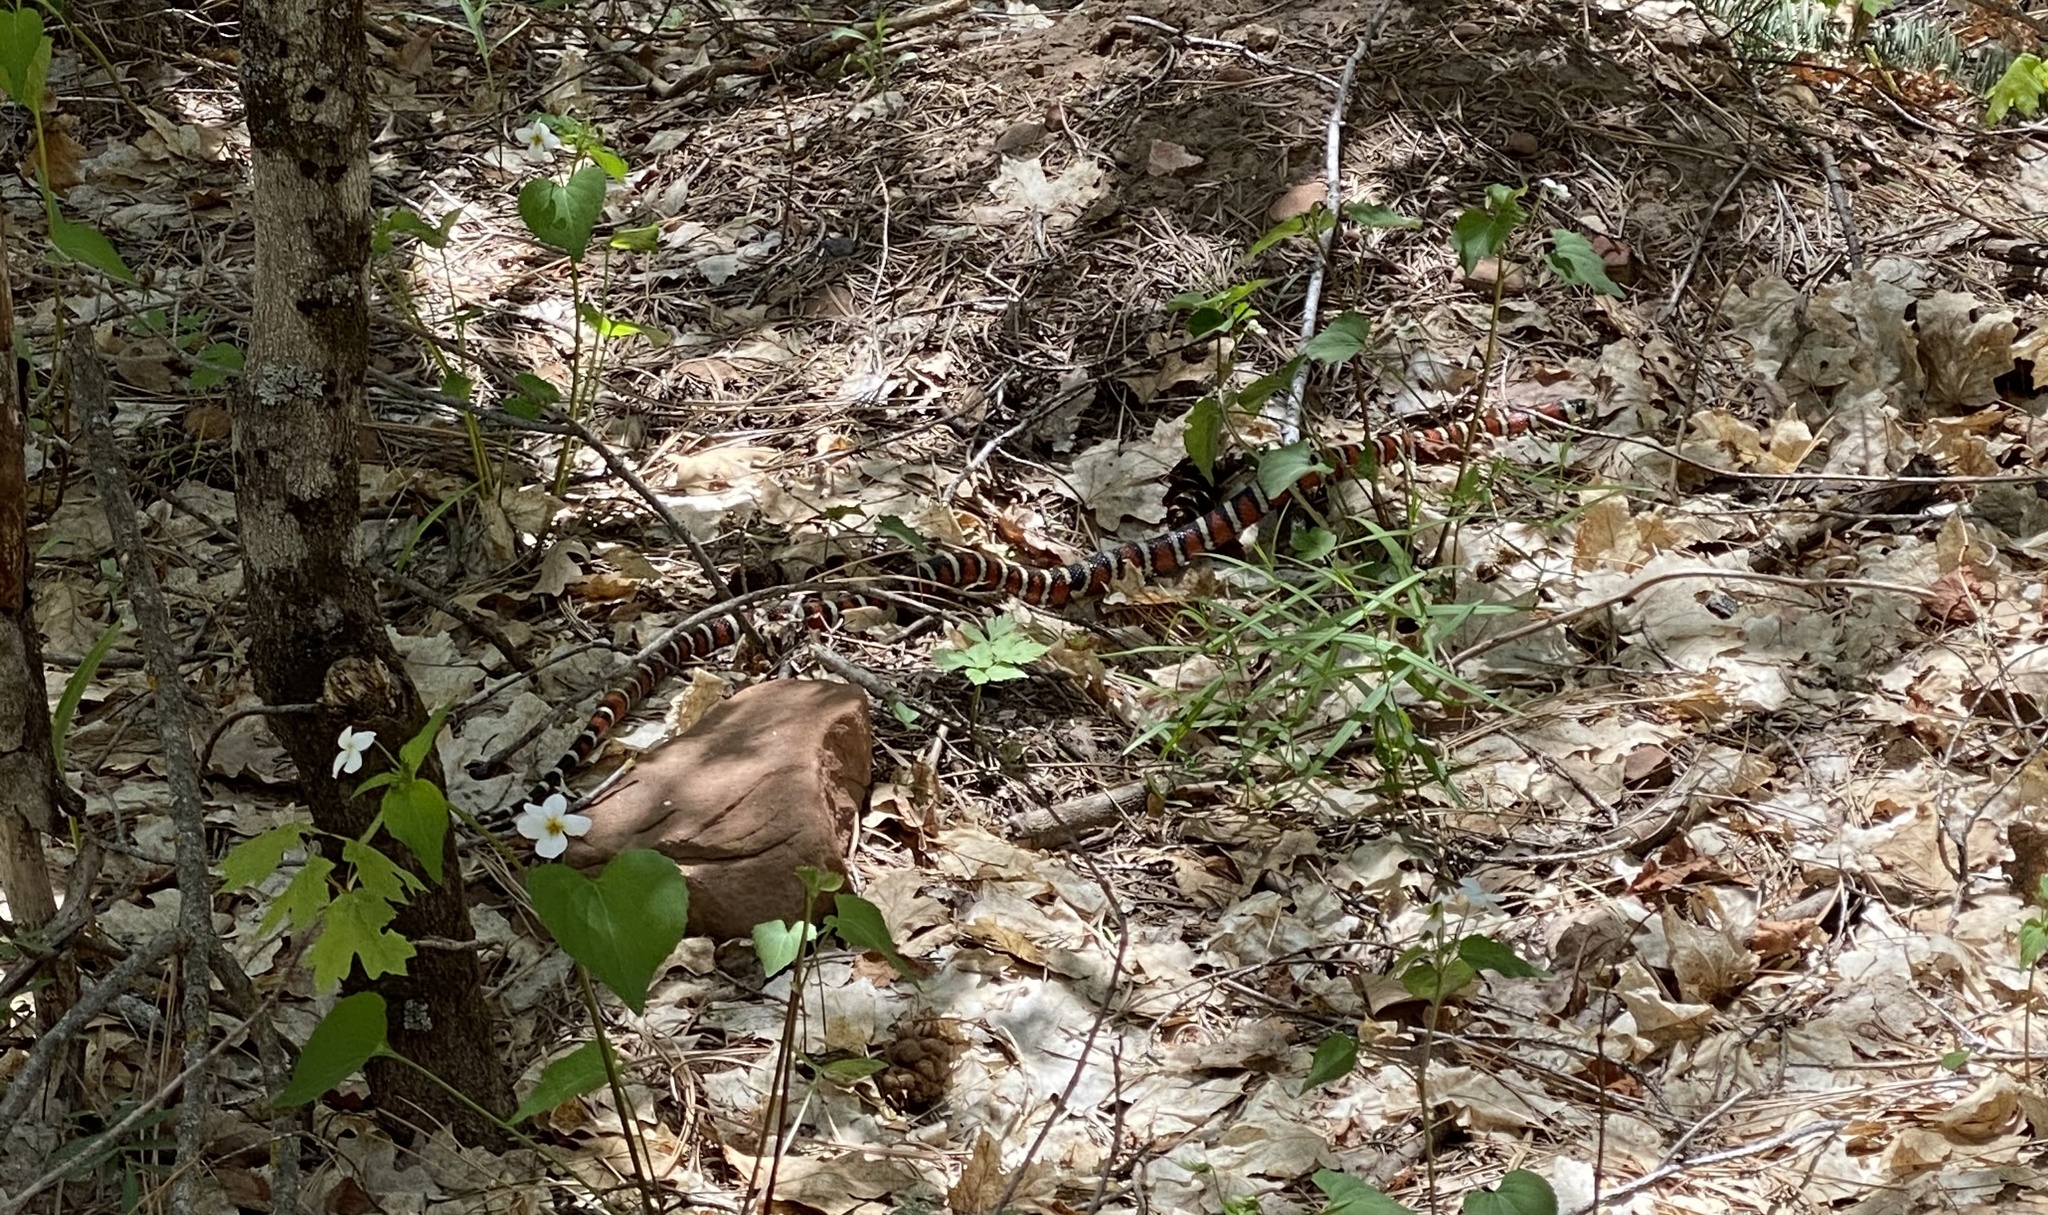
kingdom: Animalia
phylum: Chordata
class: Squamata
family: Colubridae
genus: Lampropeltis
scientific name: Lampropeltis pyromelana
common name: Sonoran mountain kingsnake
